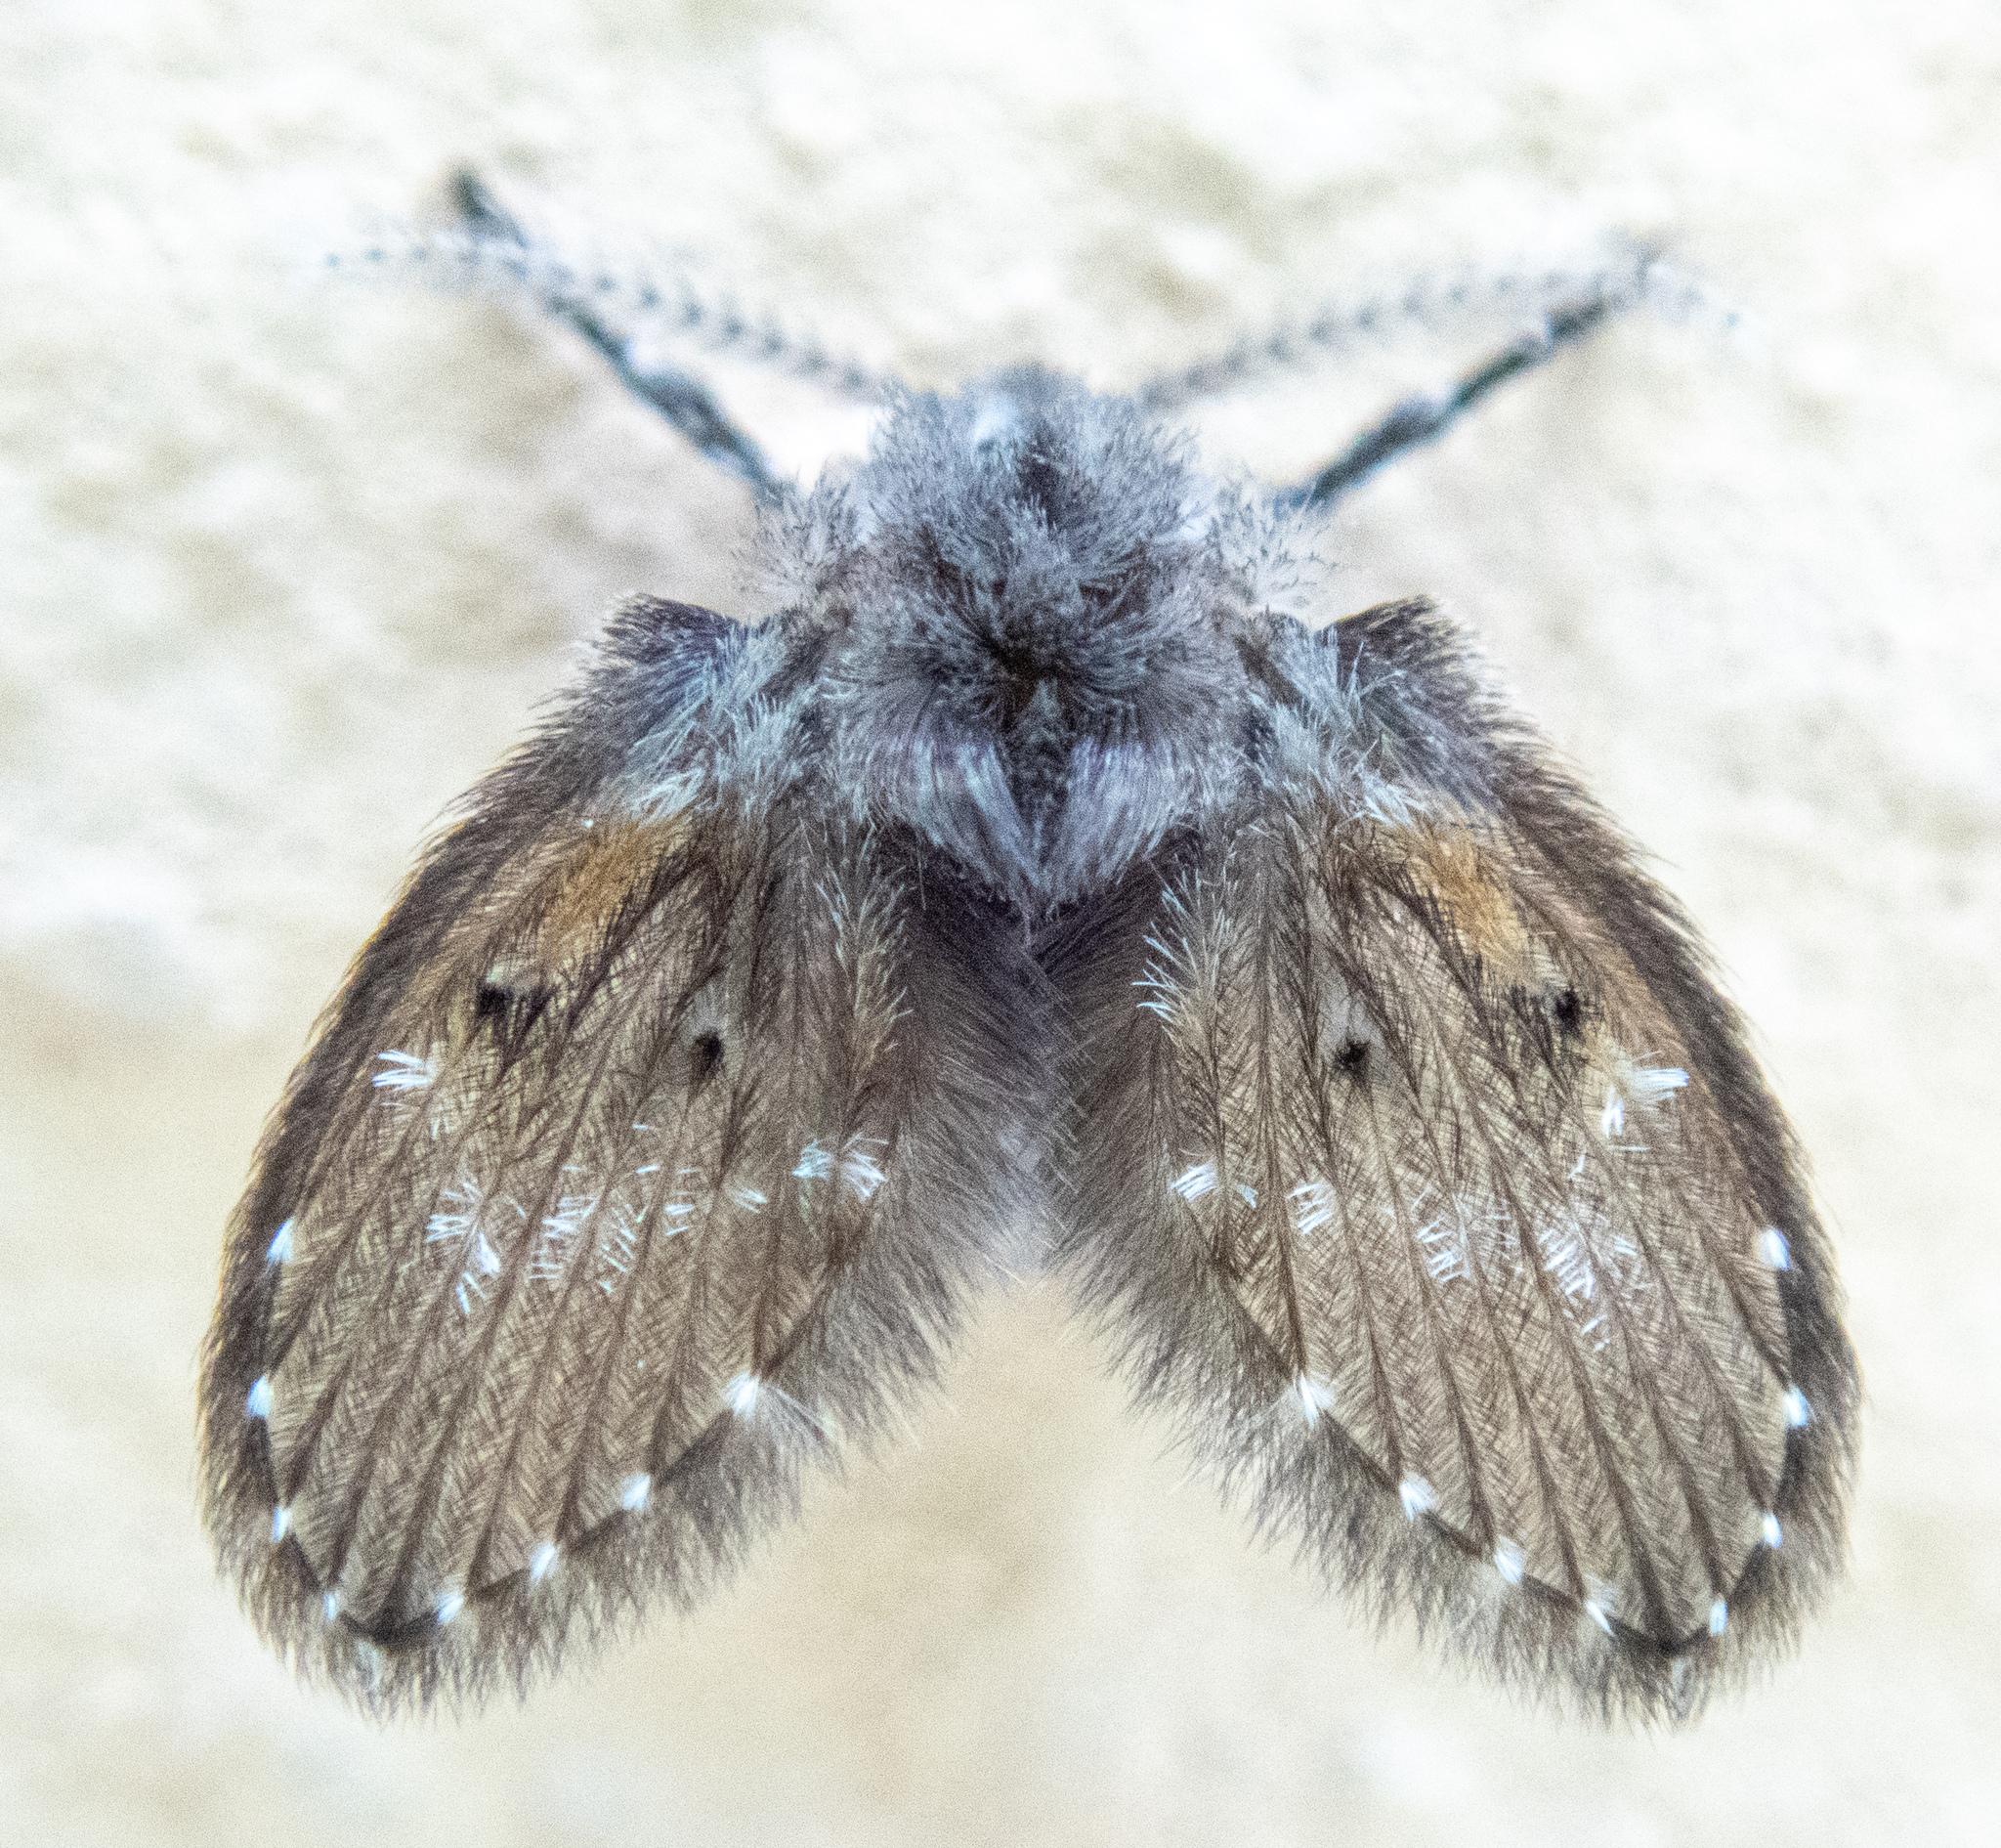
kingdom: Animalia
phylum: Arthropoda
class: Insecta
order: Diptera
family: Psychodidae
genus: Clogmia
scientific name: Clogmia albipunctatus
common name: White-spotted moth fly
